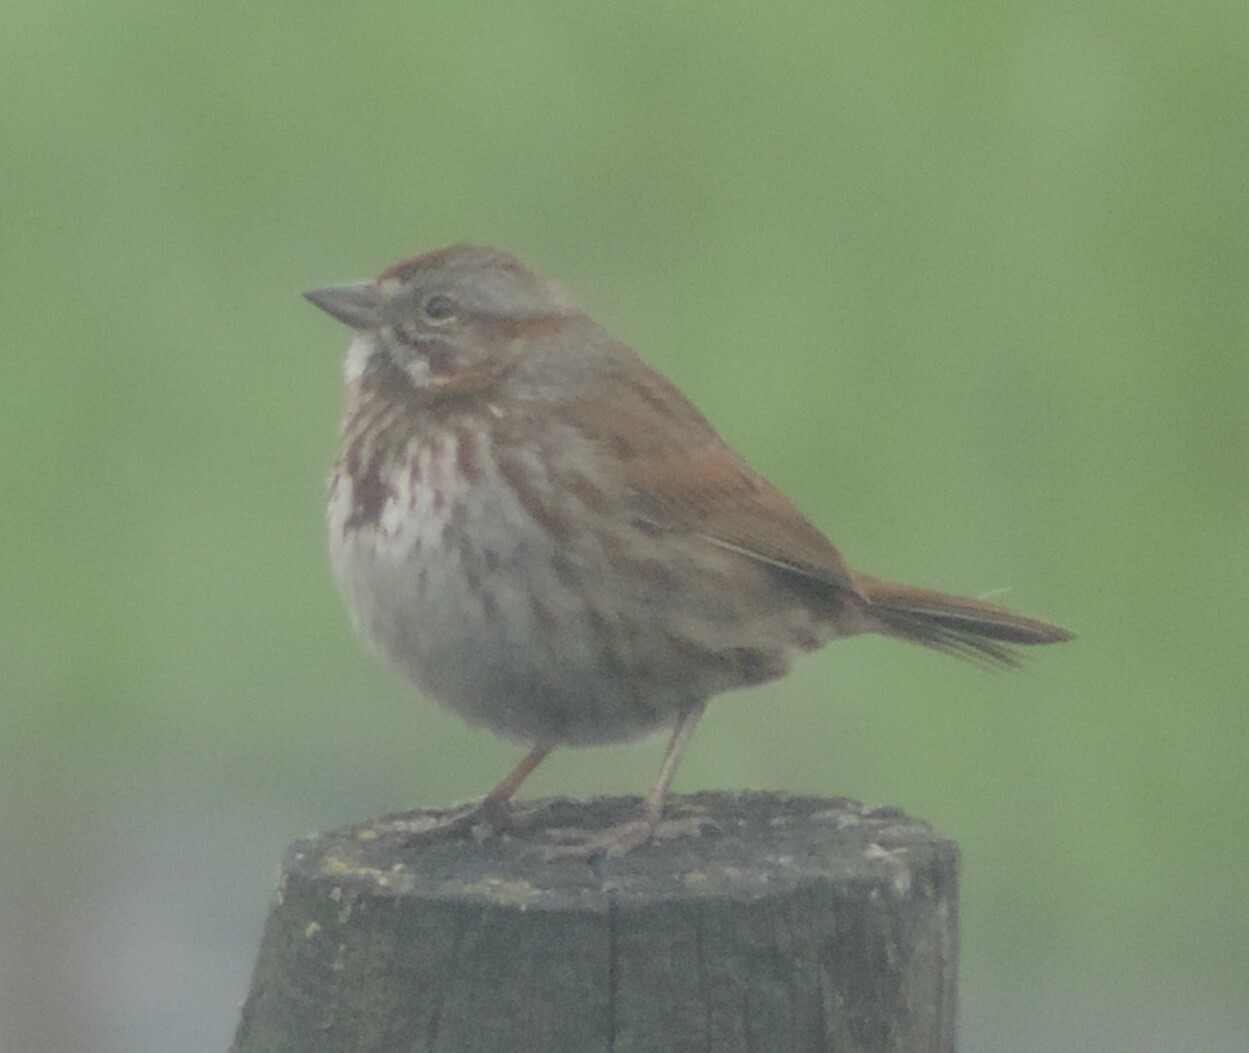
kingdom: Animalia
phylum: Chordata
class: Aves
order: Passeriformes
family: Passerellidae
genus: Melospiza
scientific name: Melospiza melodia
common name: Song sparrow
